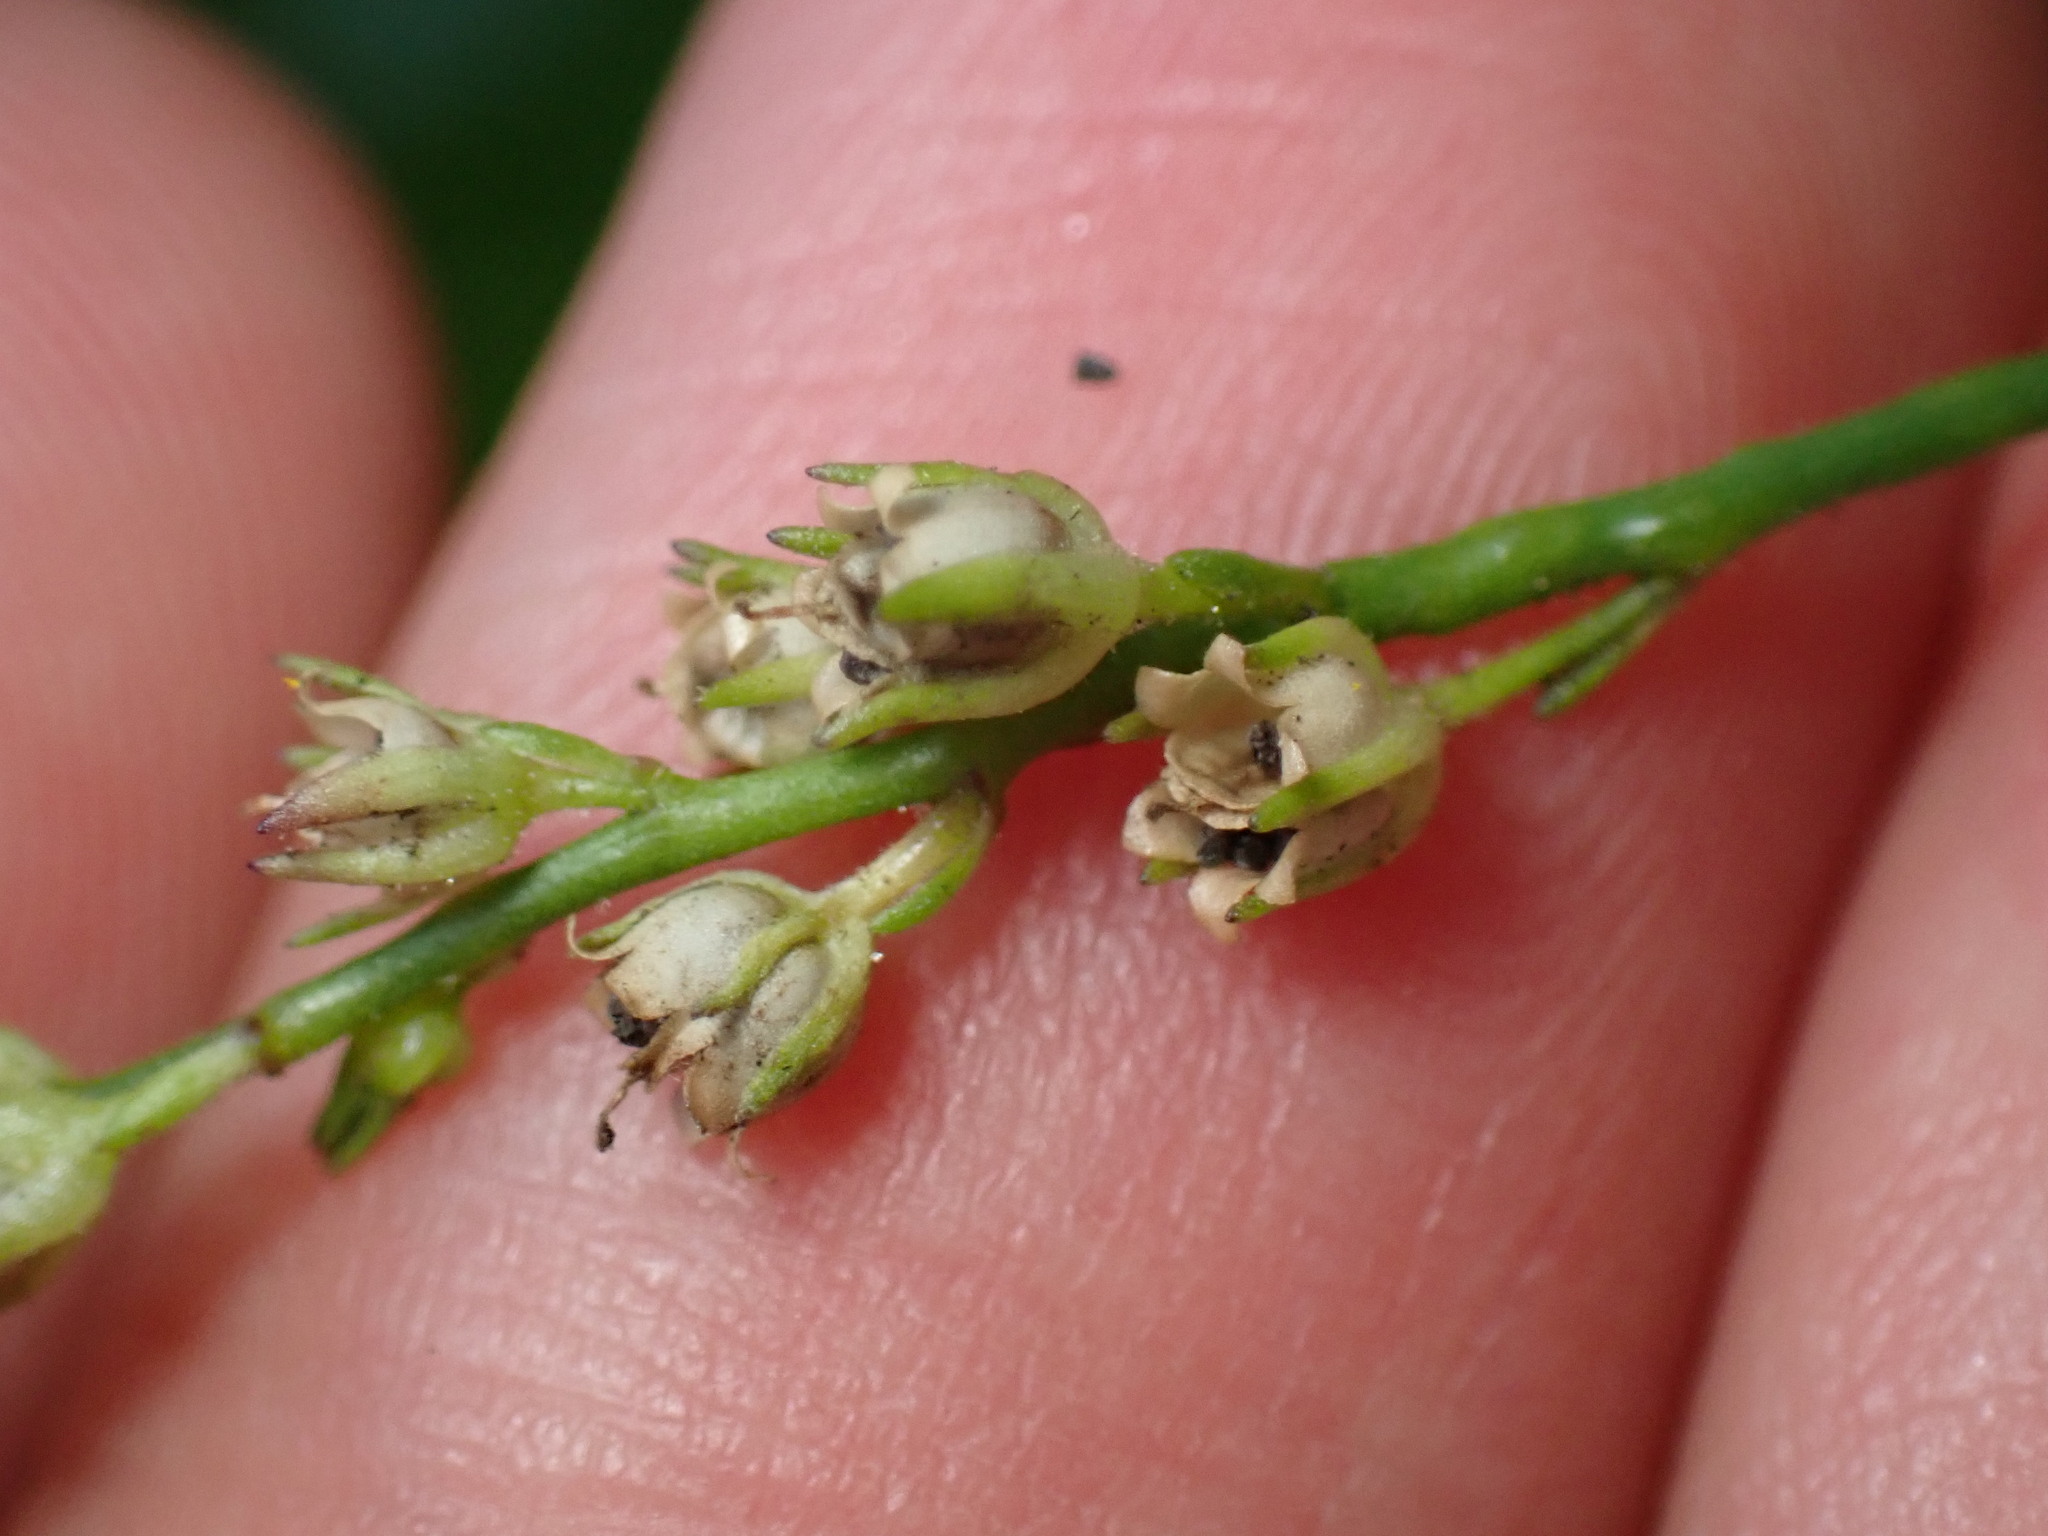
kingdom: Plantae
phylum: Tracheophyta
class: Magnoliopsida
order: Lamiales
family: Plantaginaceae
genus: Nuttallanthus
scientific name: Nuttallanthus canadensis
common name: Blue toadflax
